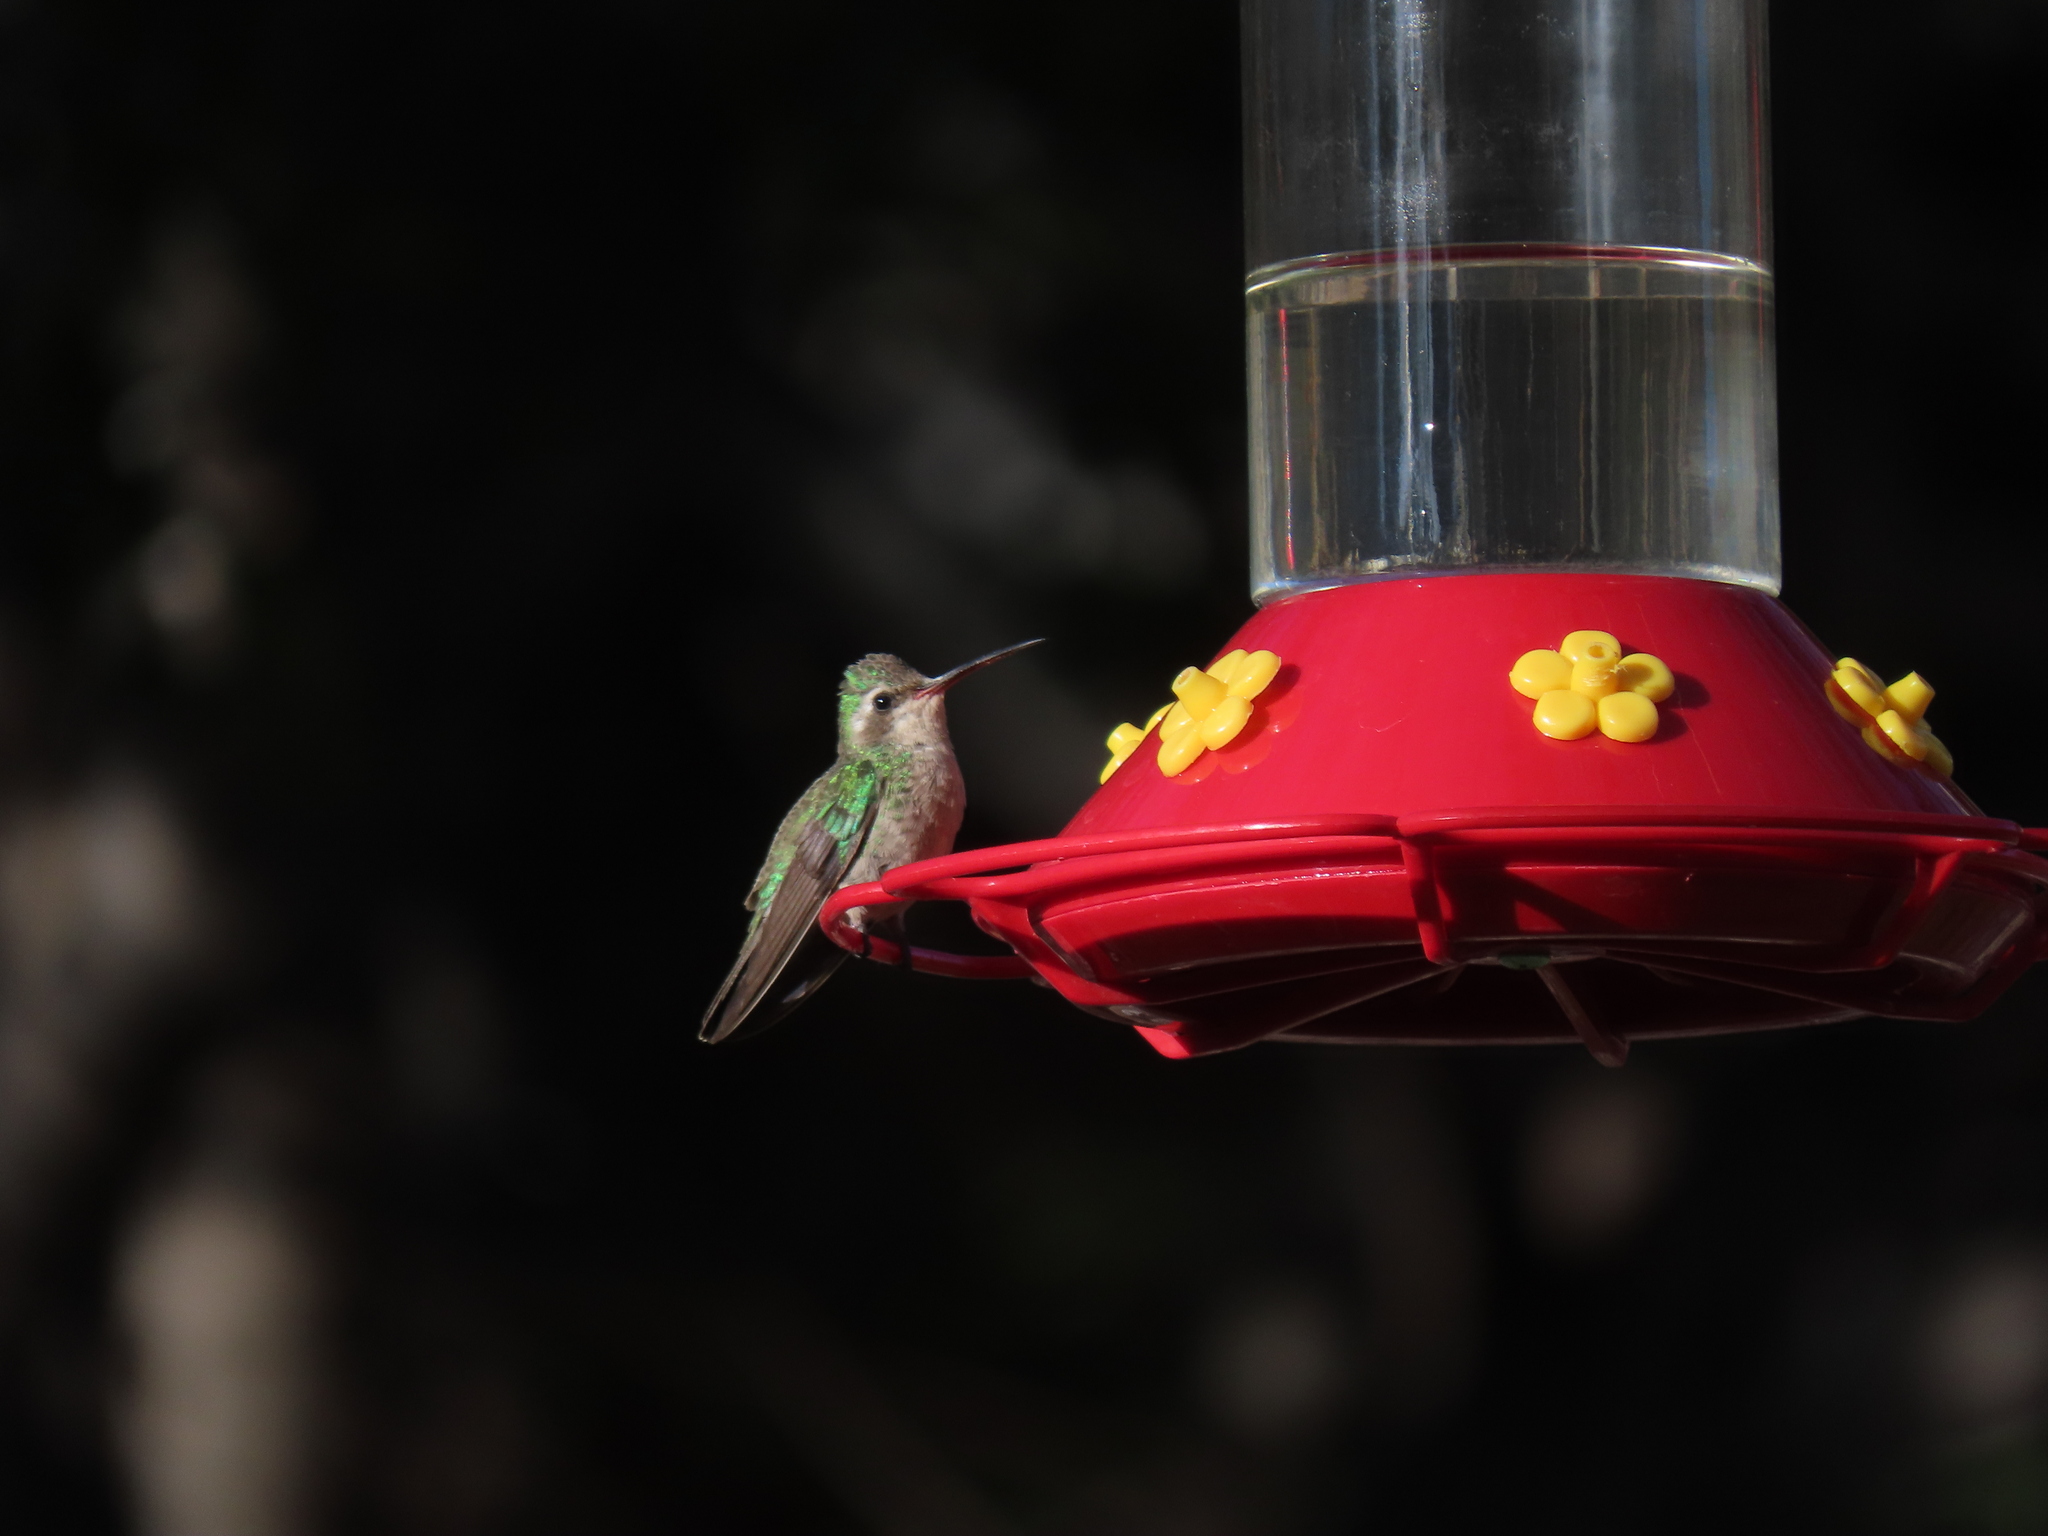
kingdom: Animalia
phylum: Chordata
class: Aves
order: Apodiformes
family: Trochilidae
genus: Cynanthus
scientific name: Cynanthus latirostris
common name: Broad-billed hummingbird
